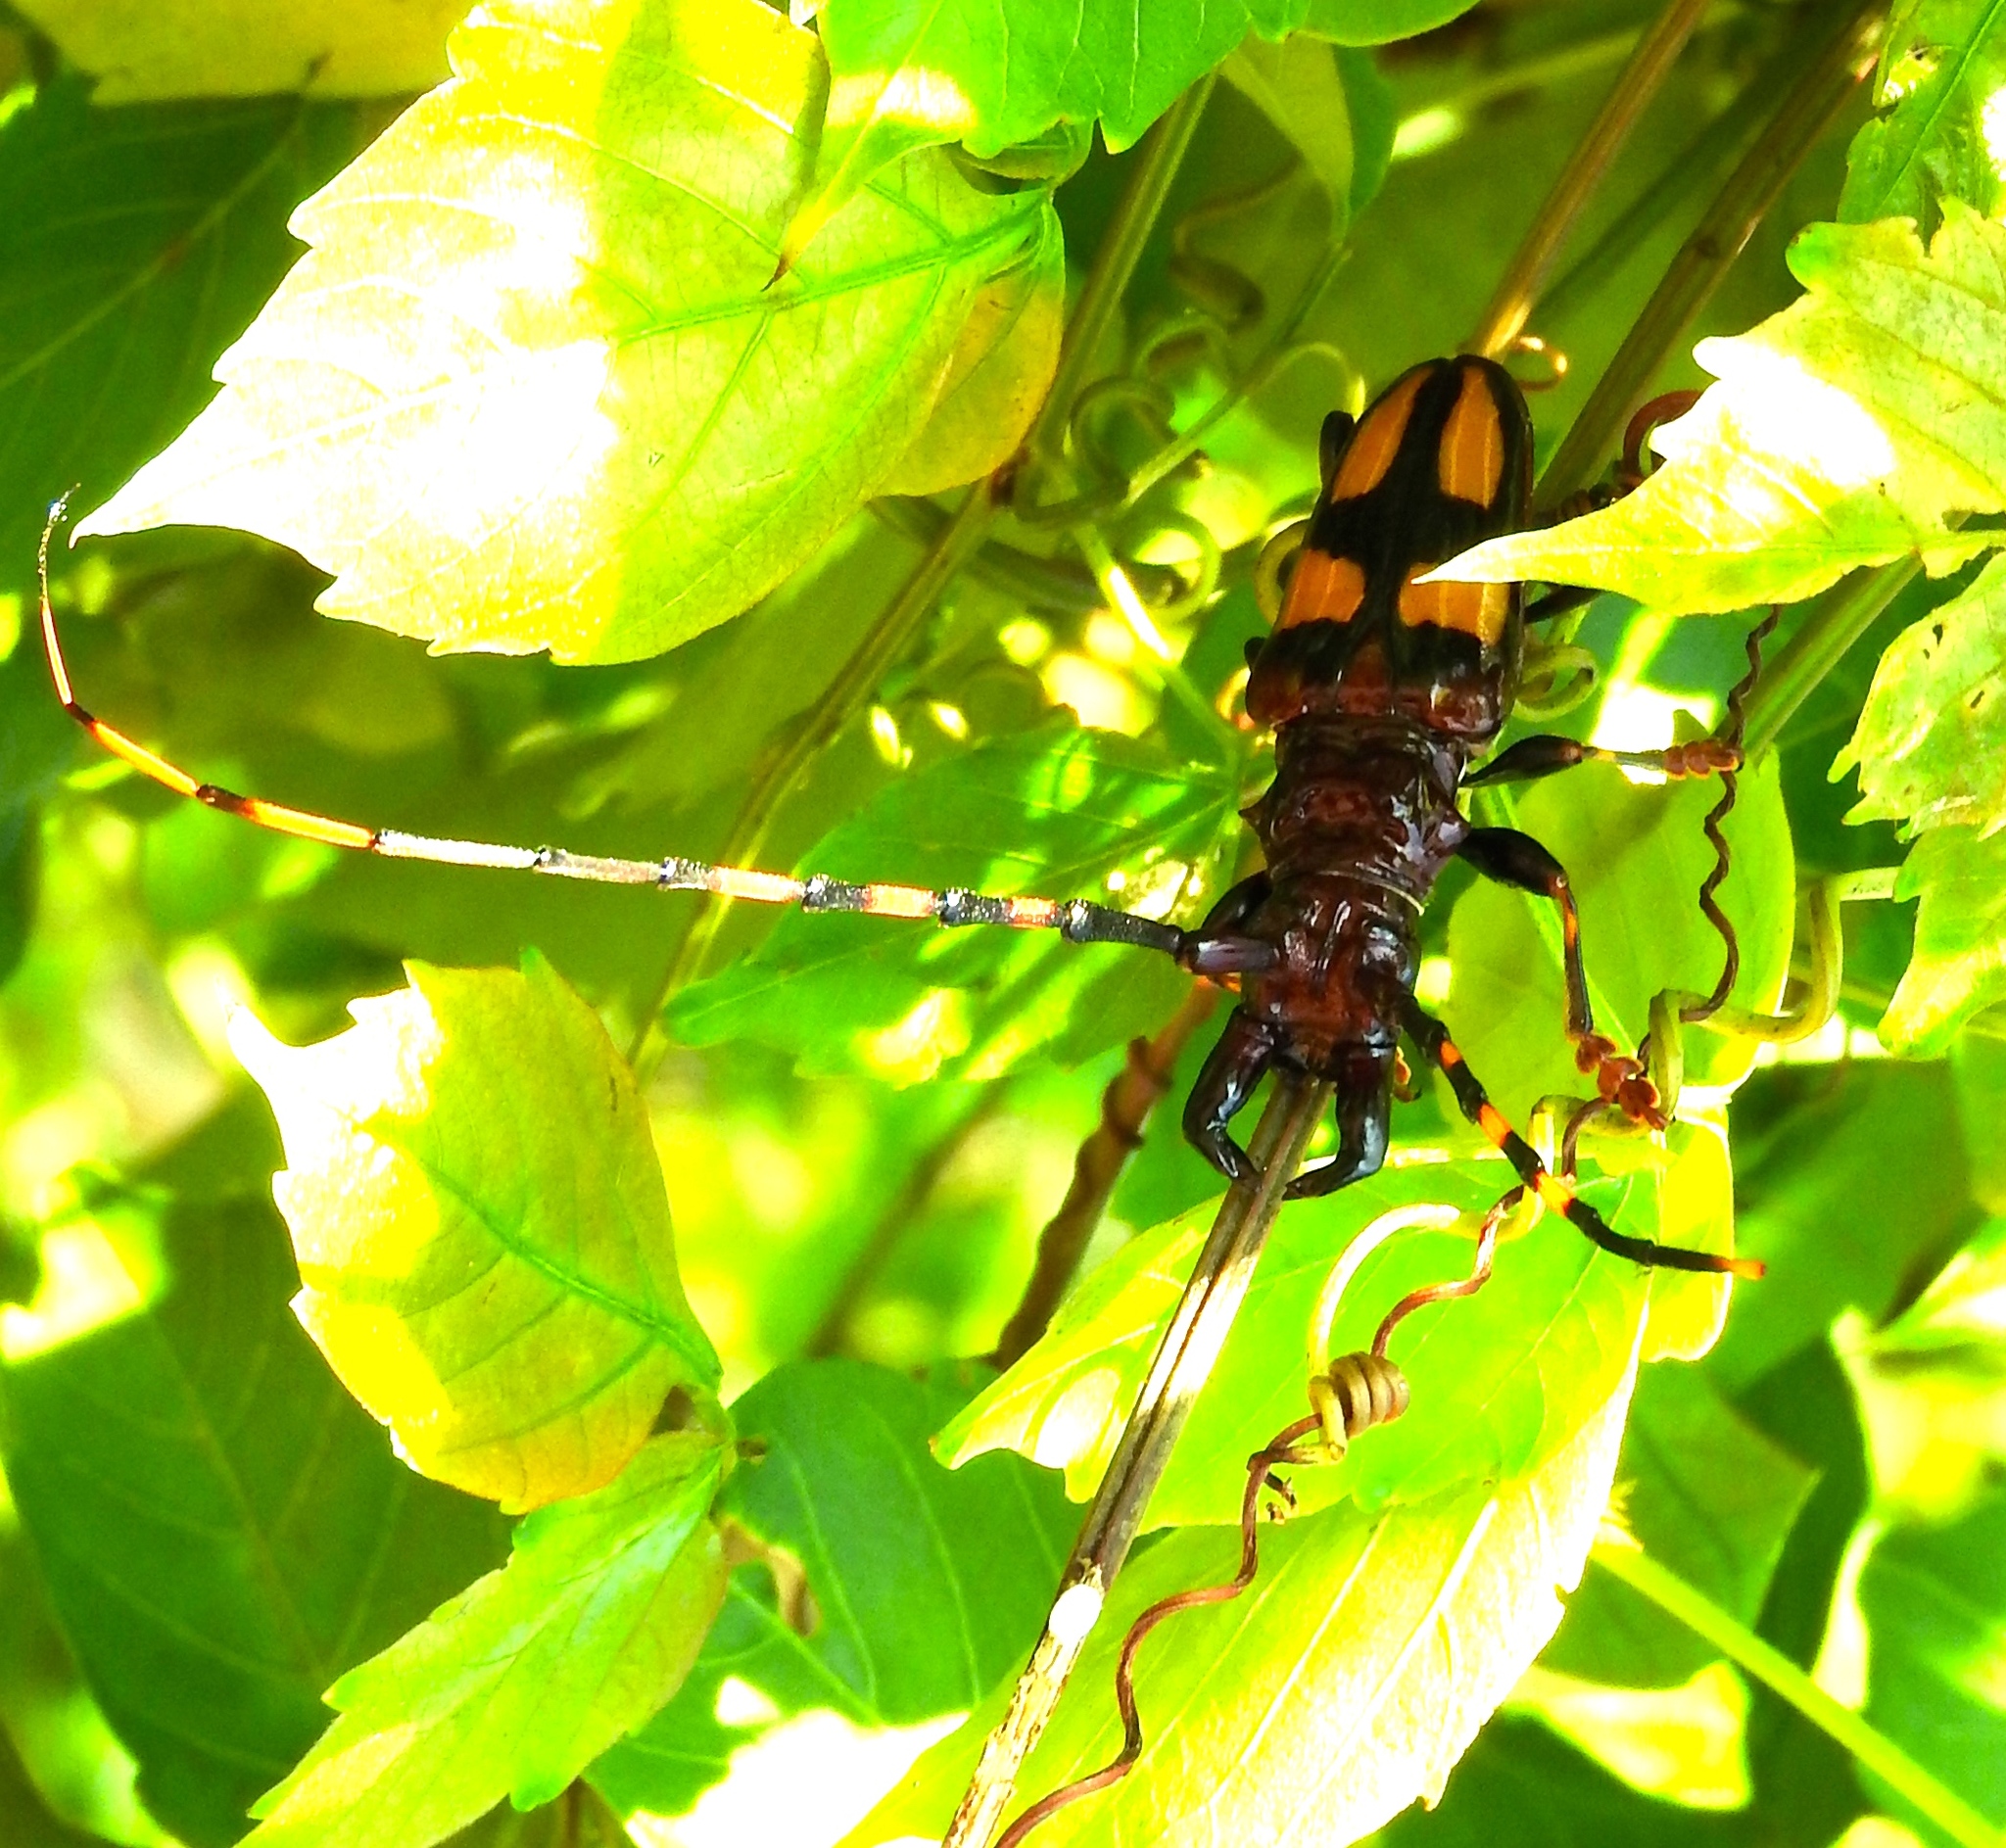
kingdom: Animalia
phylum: Arthropoda
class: Insecta
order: Coleoptera
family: Cerambycidae
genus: Trachyderes
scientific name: Trachyderes mandibularis
